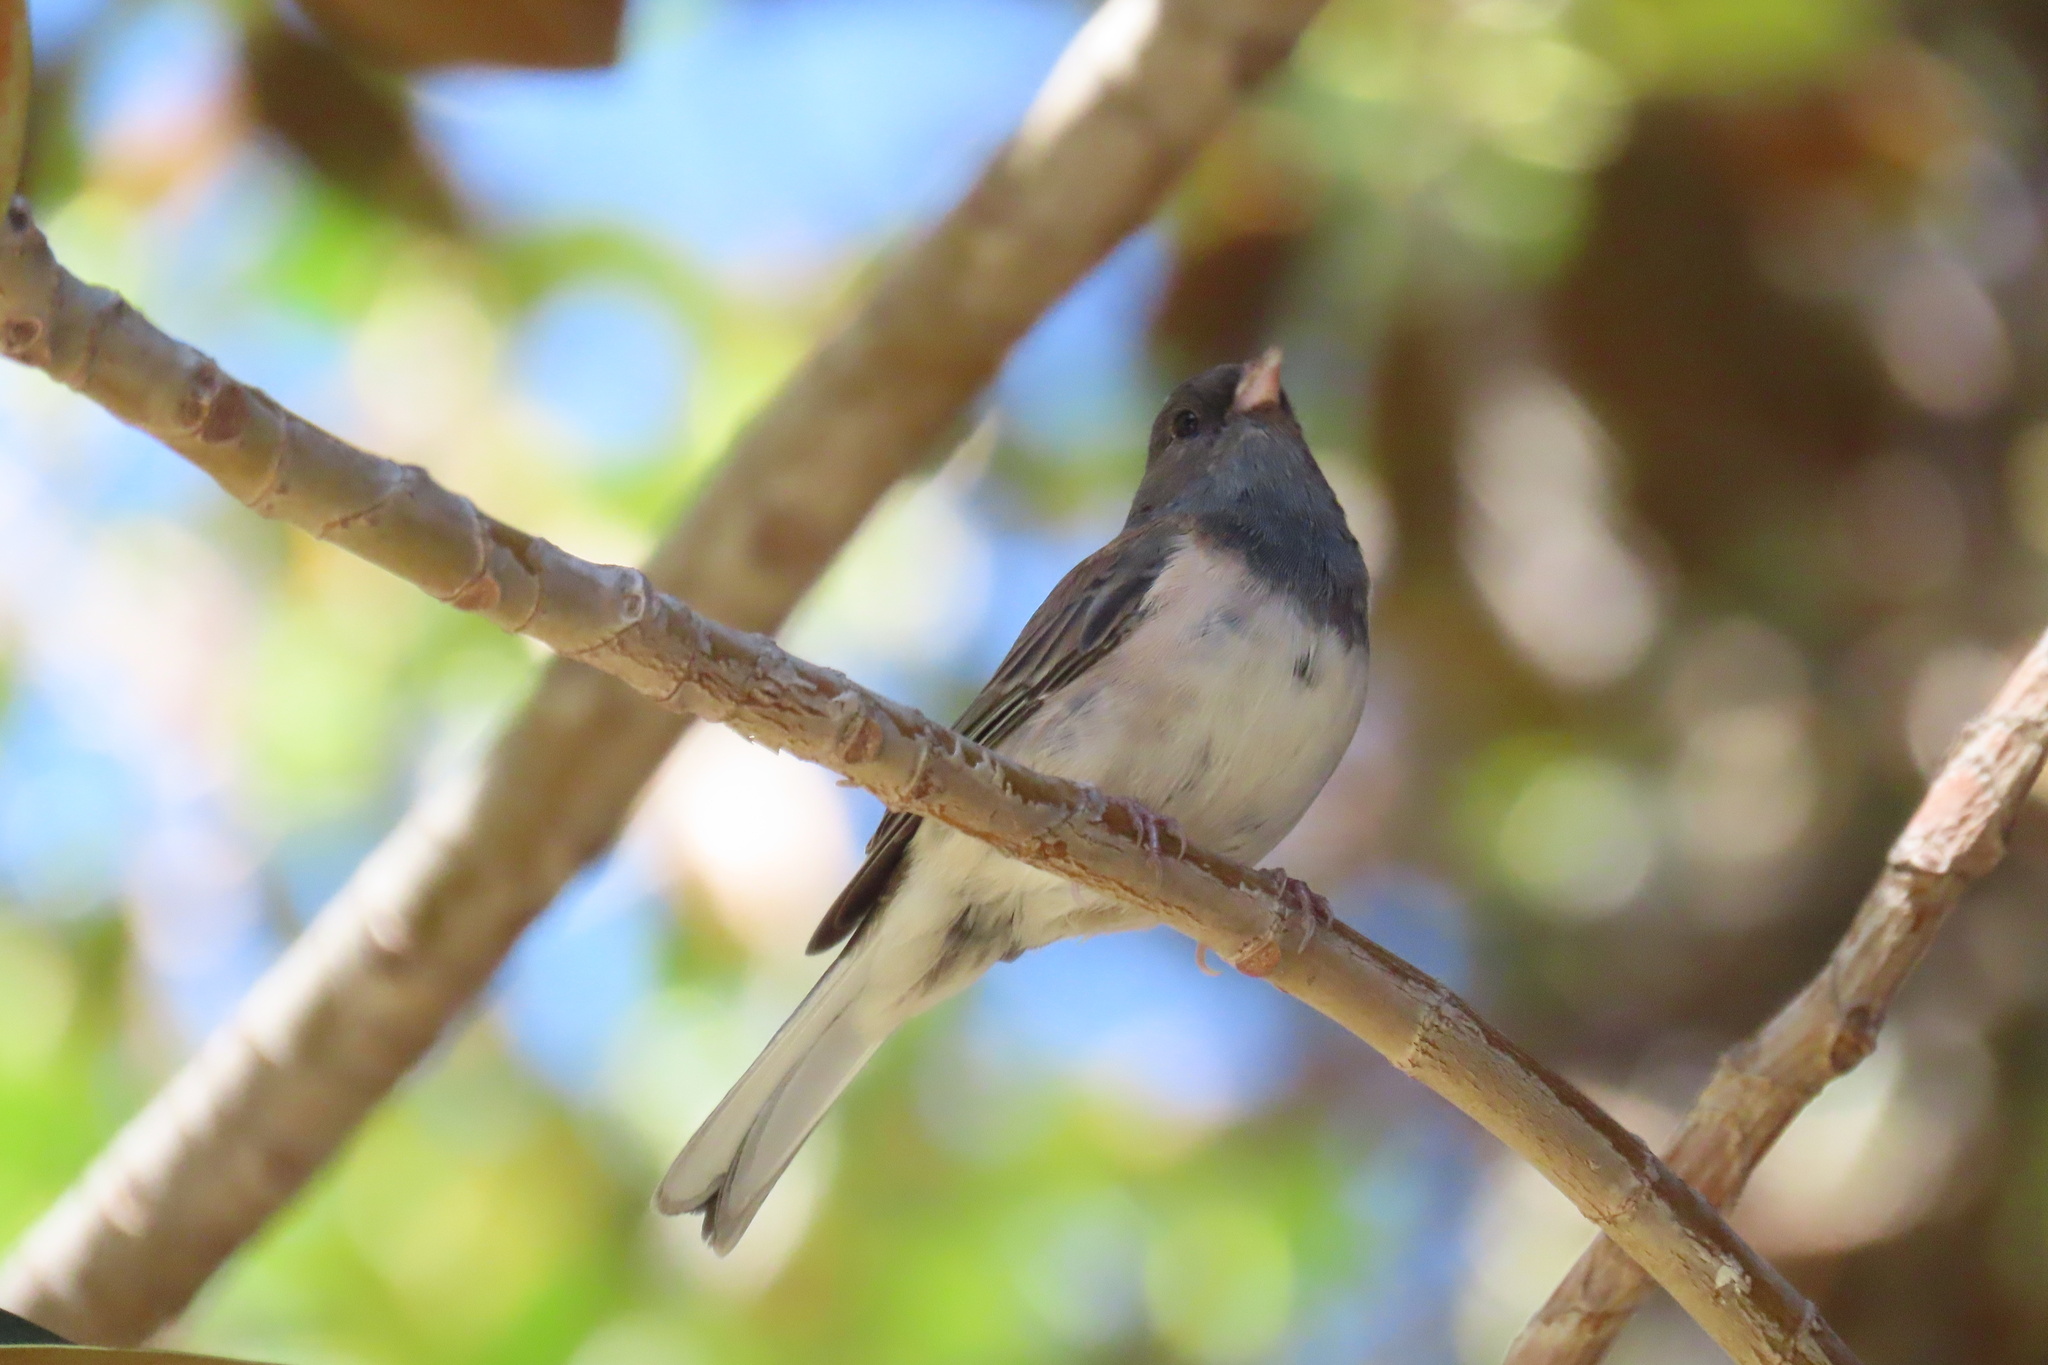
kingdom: Animalia
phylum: Chordata
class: Aves
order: Passeriformes
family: Passerellidae
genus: Junco
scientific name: Junco hyemalis
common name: Dark-eyed junco
